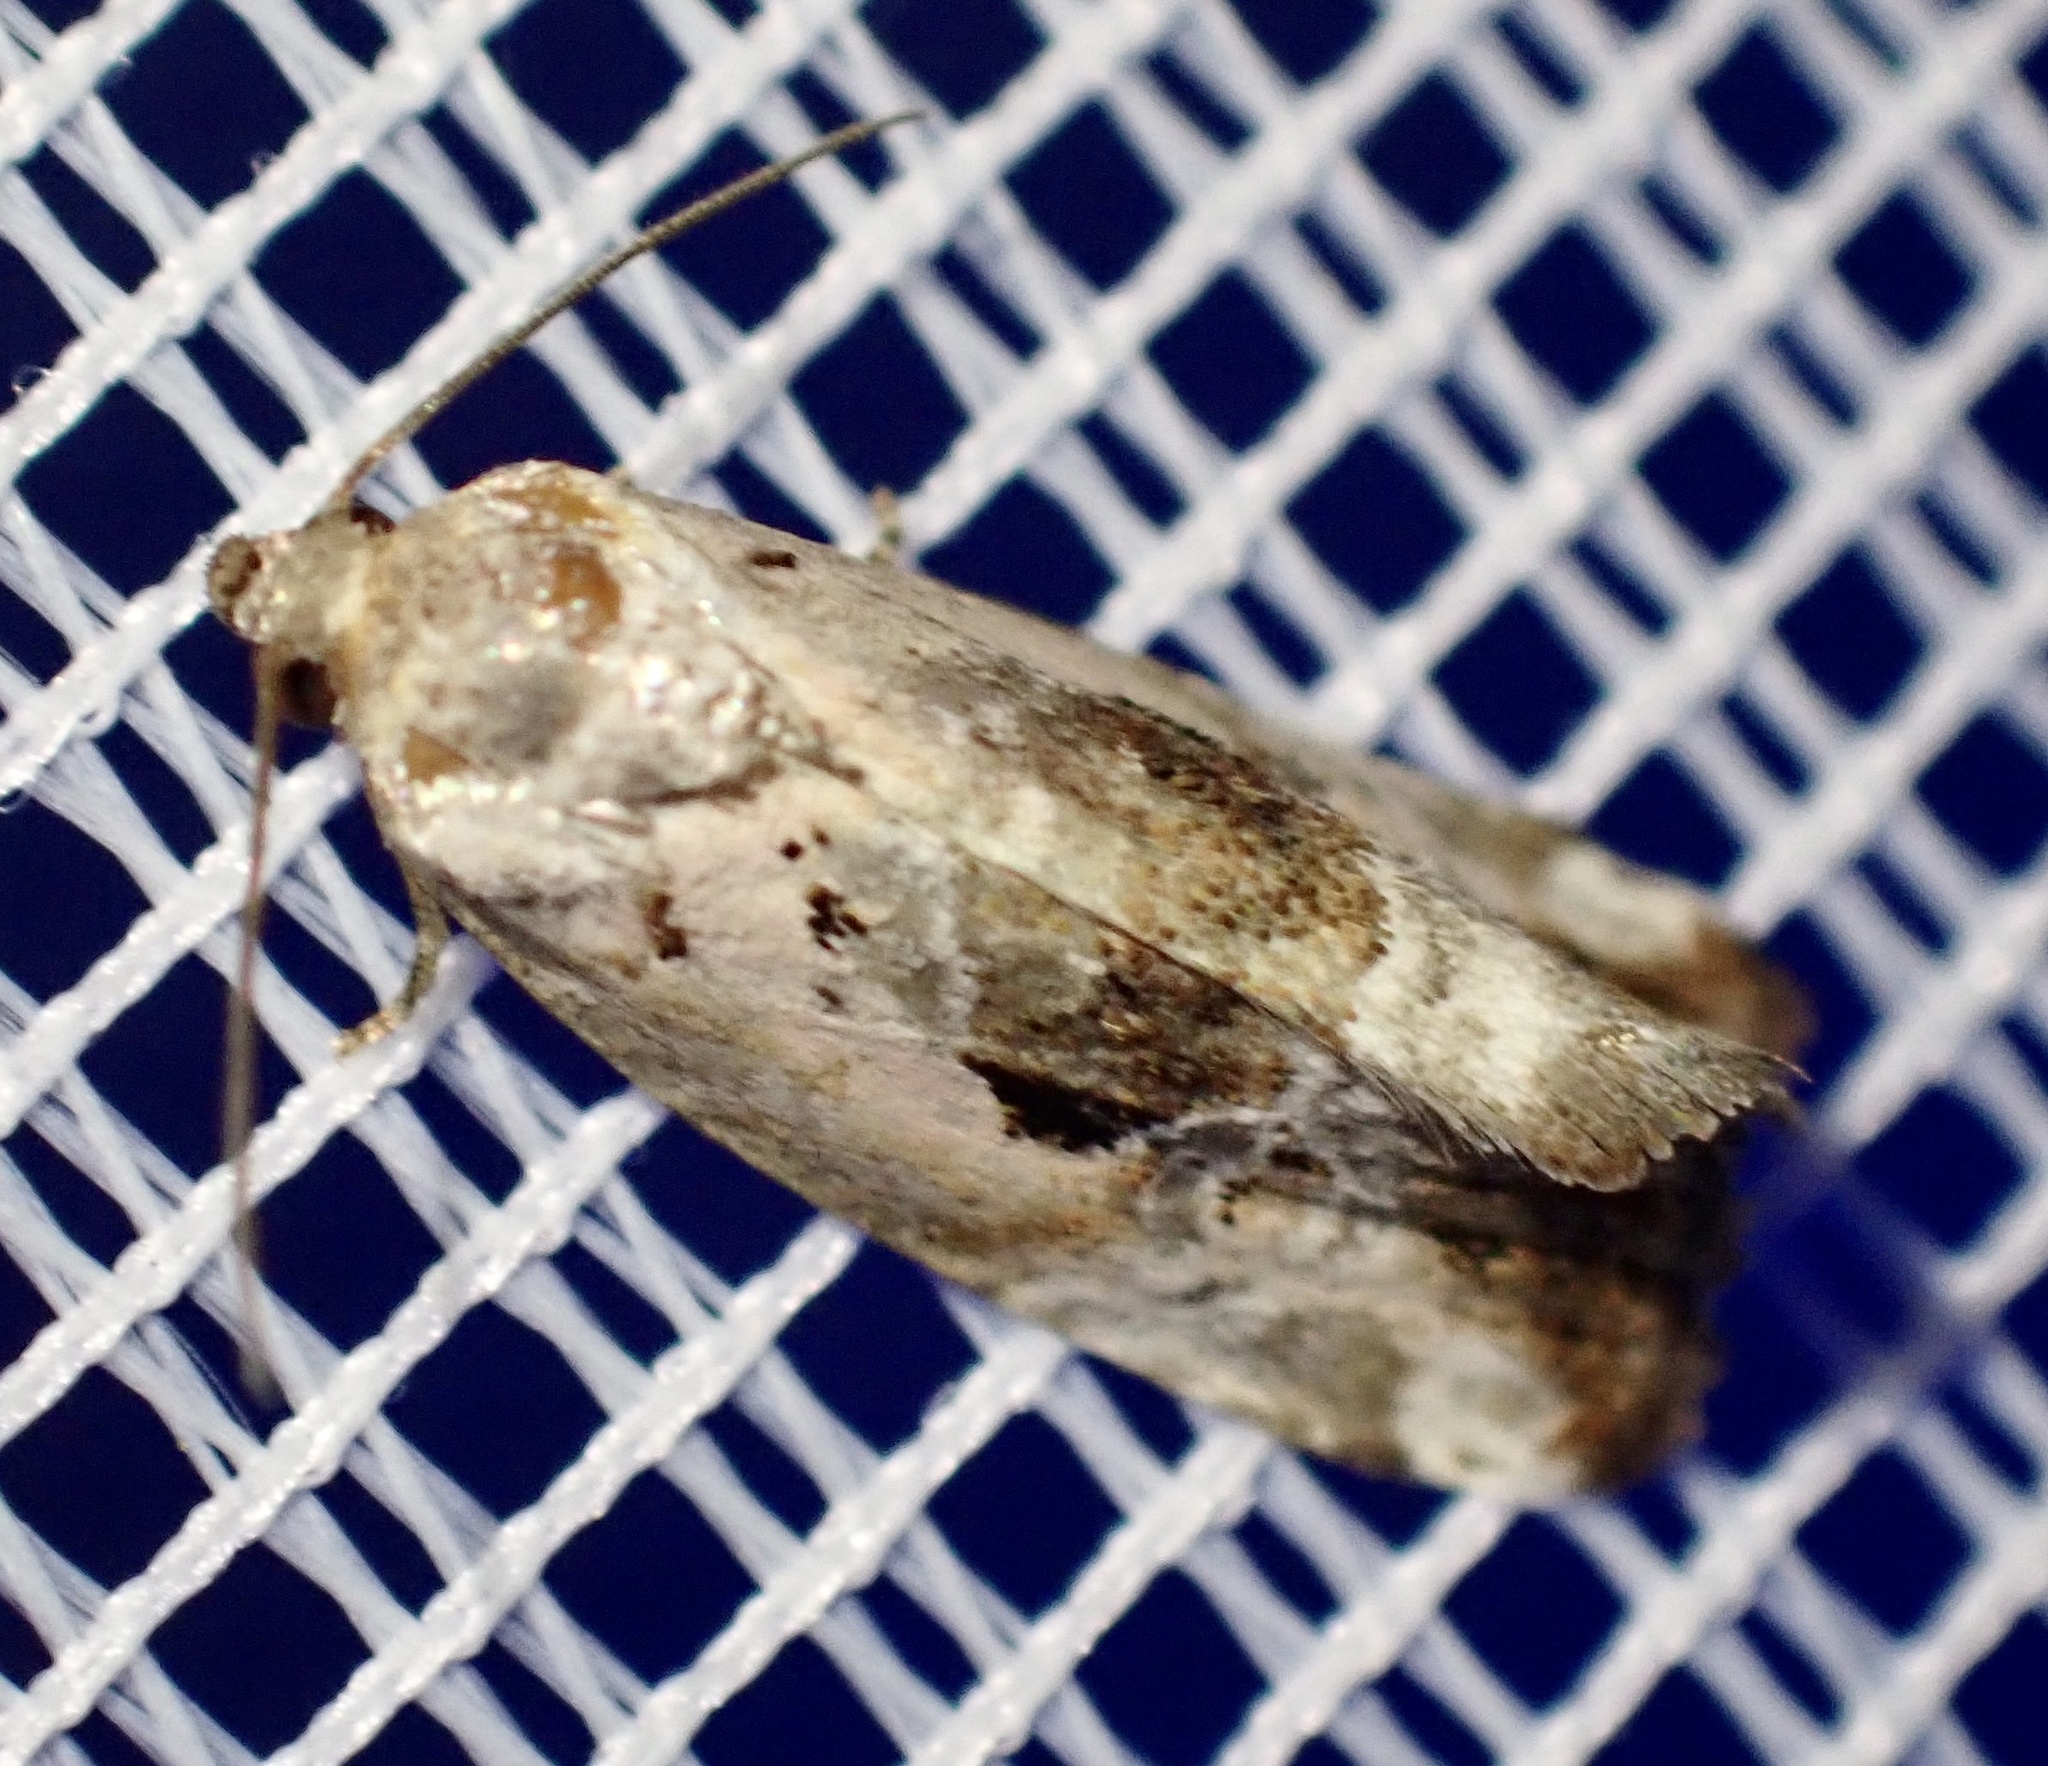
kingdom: Animalia
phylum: Arthropoda
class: Insecta
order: Lepidoptera
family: Noctuidae
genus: Elaphria
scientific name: Elaphria venustula
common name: Rosy marbled
